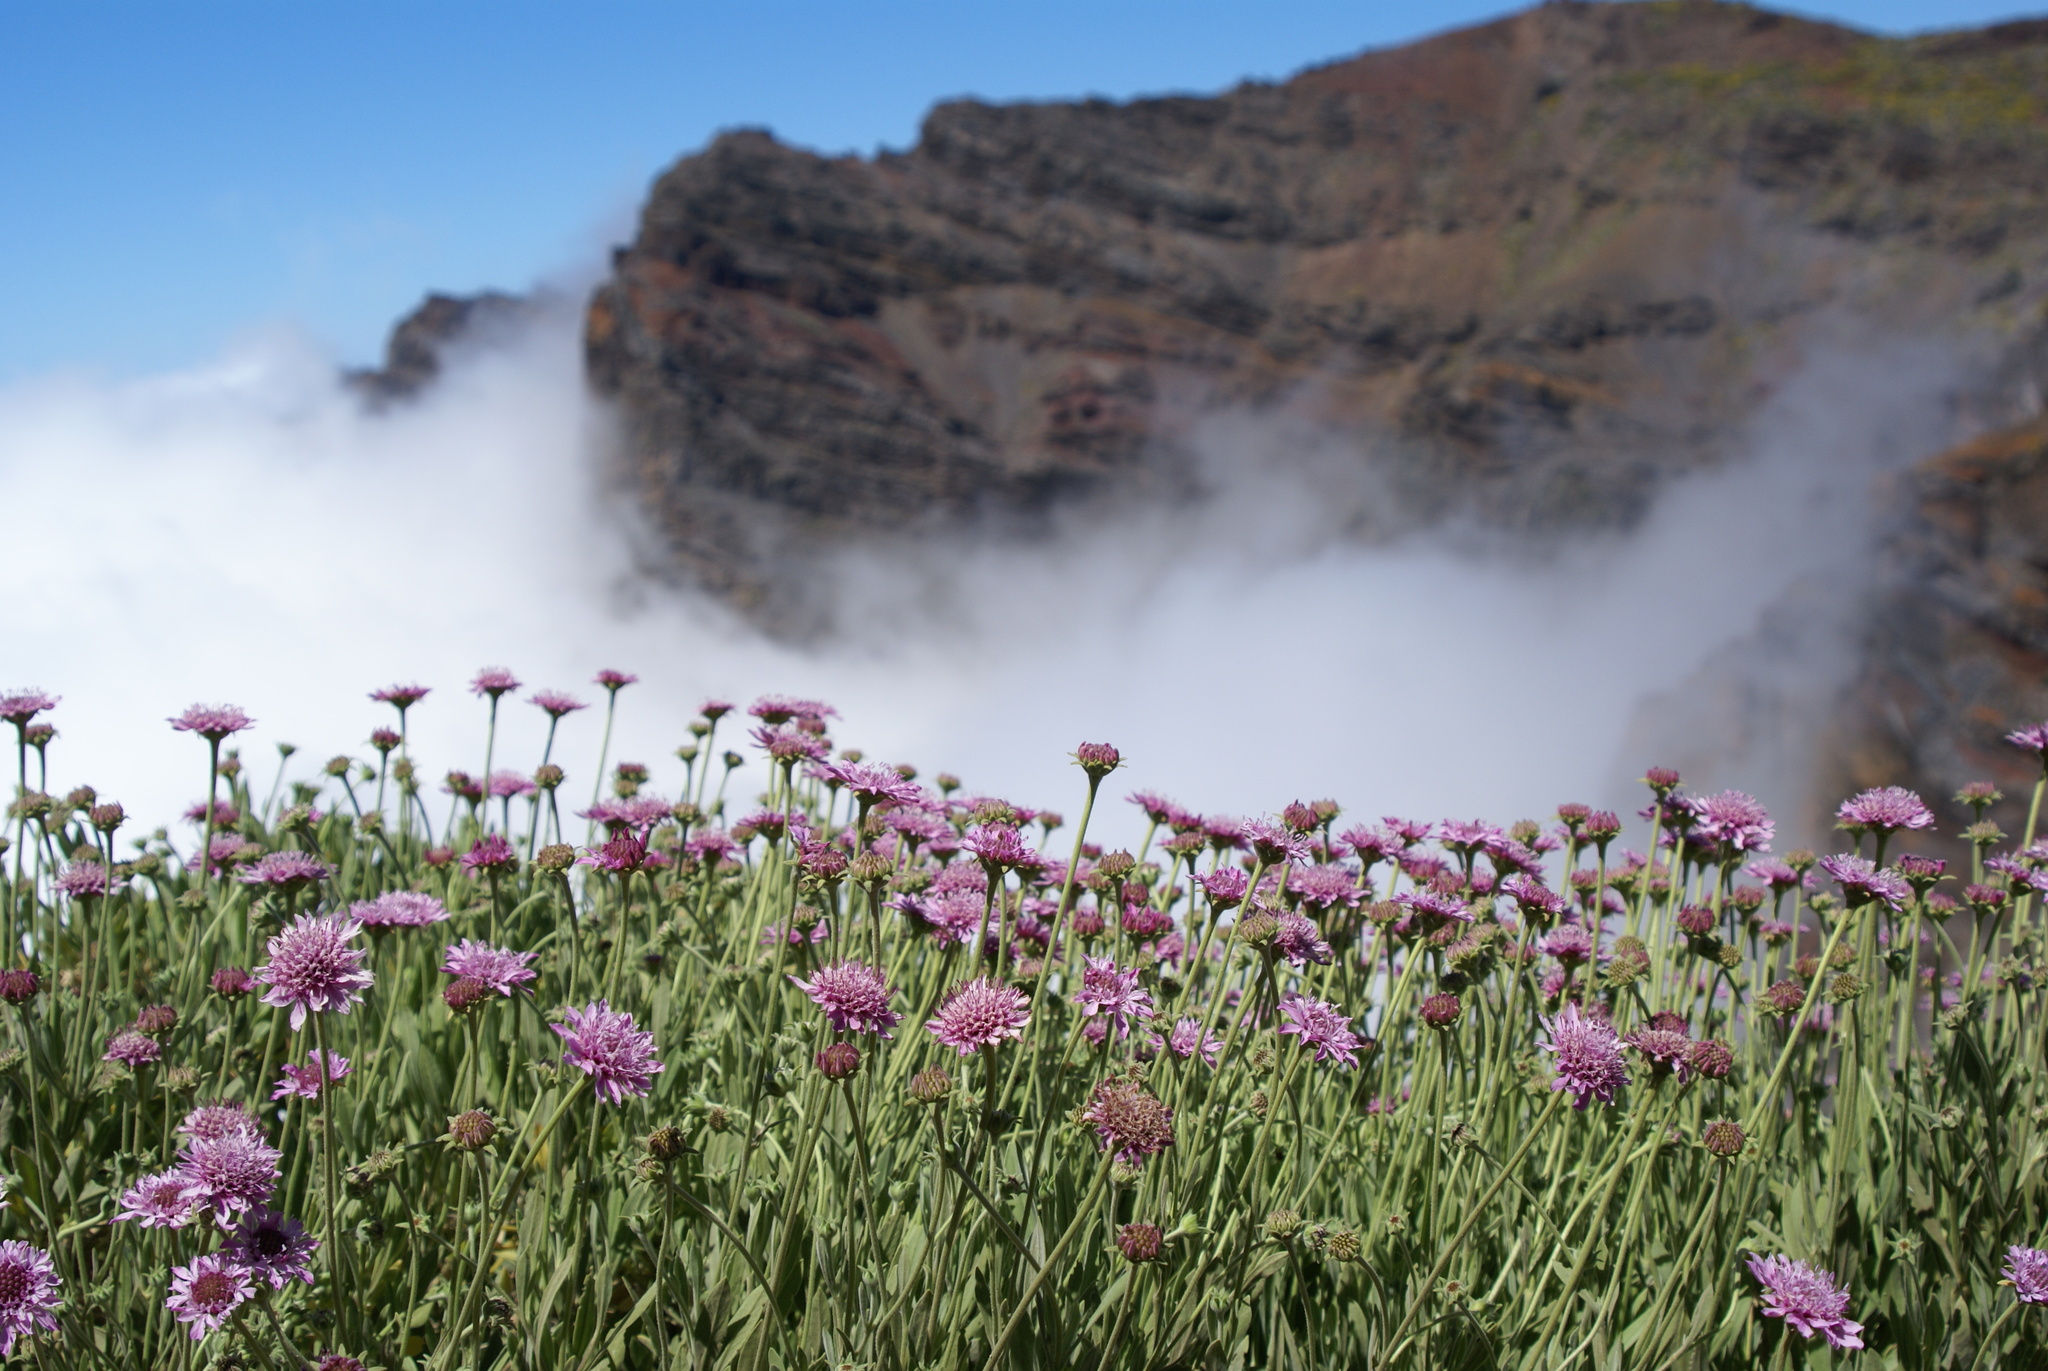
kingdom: Plantae
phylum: Tracheophyta
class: Magnoliopsida
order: Dipsacales
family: Caprifoliaceae
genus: Pterocephalus
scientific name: Pterocephalus porphyranthus
